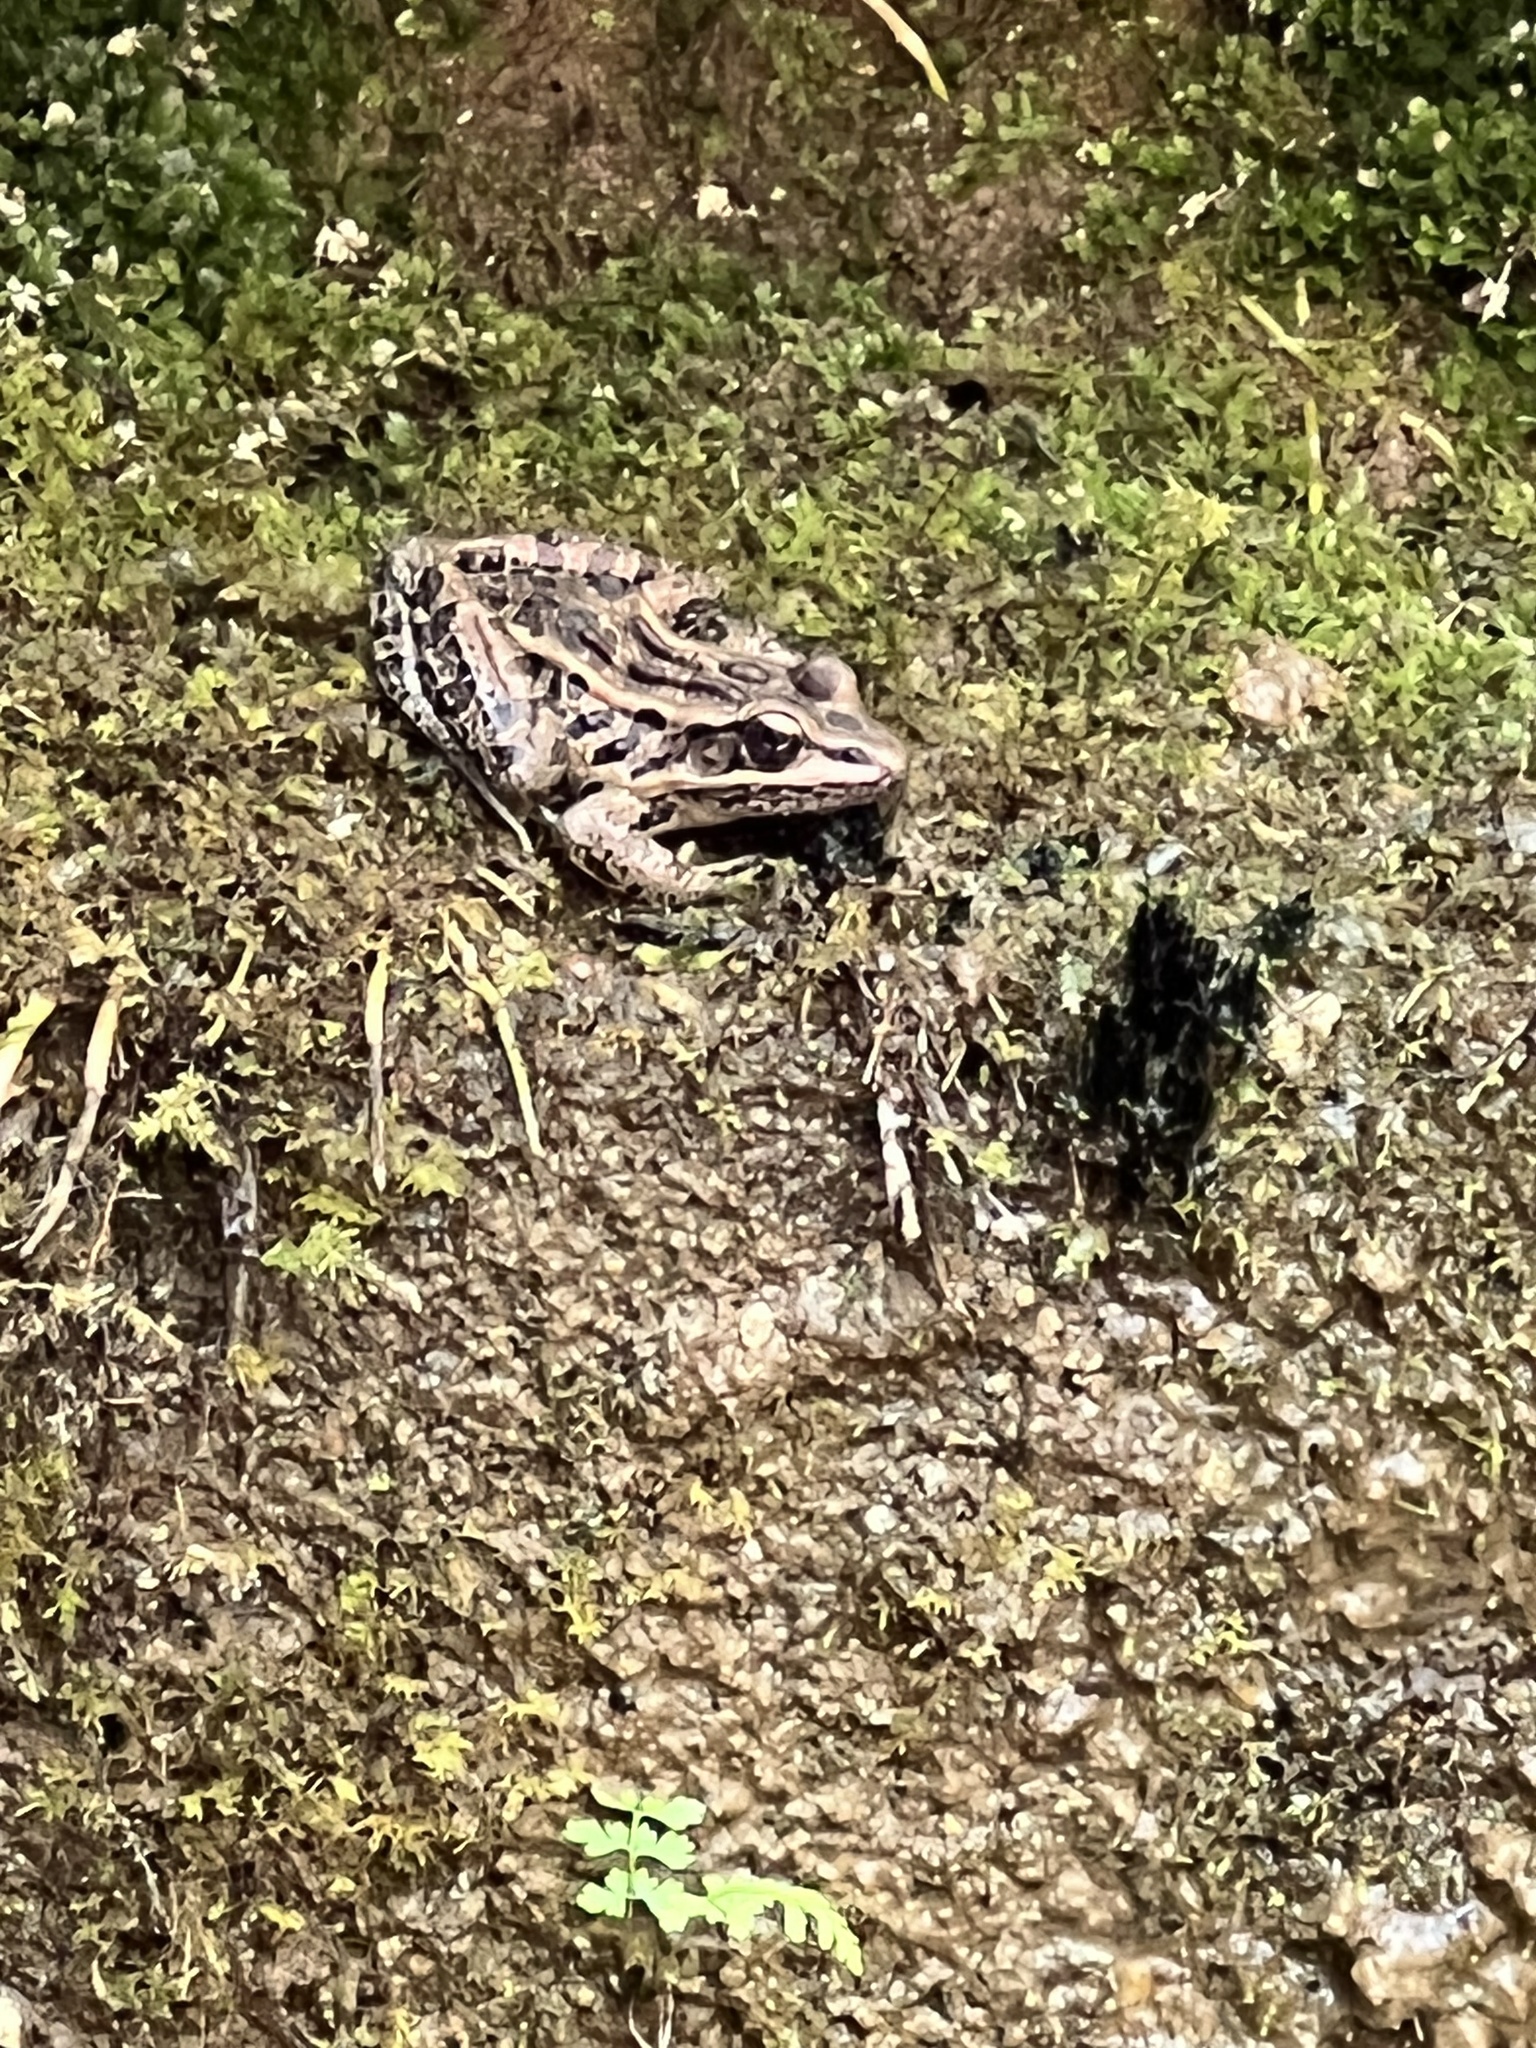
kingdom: Animalia
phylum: Chordata
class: Amphibia
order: Anura
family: Ranidae
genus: Lithobates
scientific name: Lithobates palustris
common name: Pickerel frog
